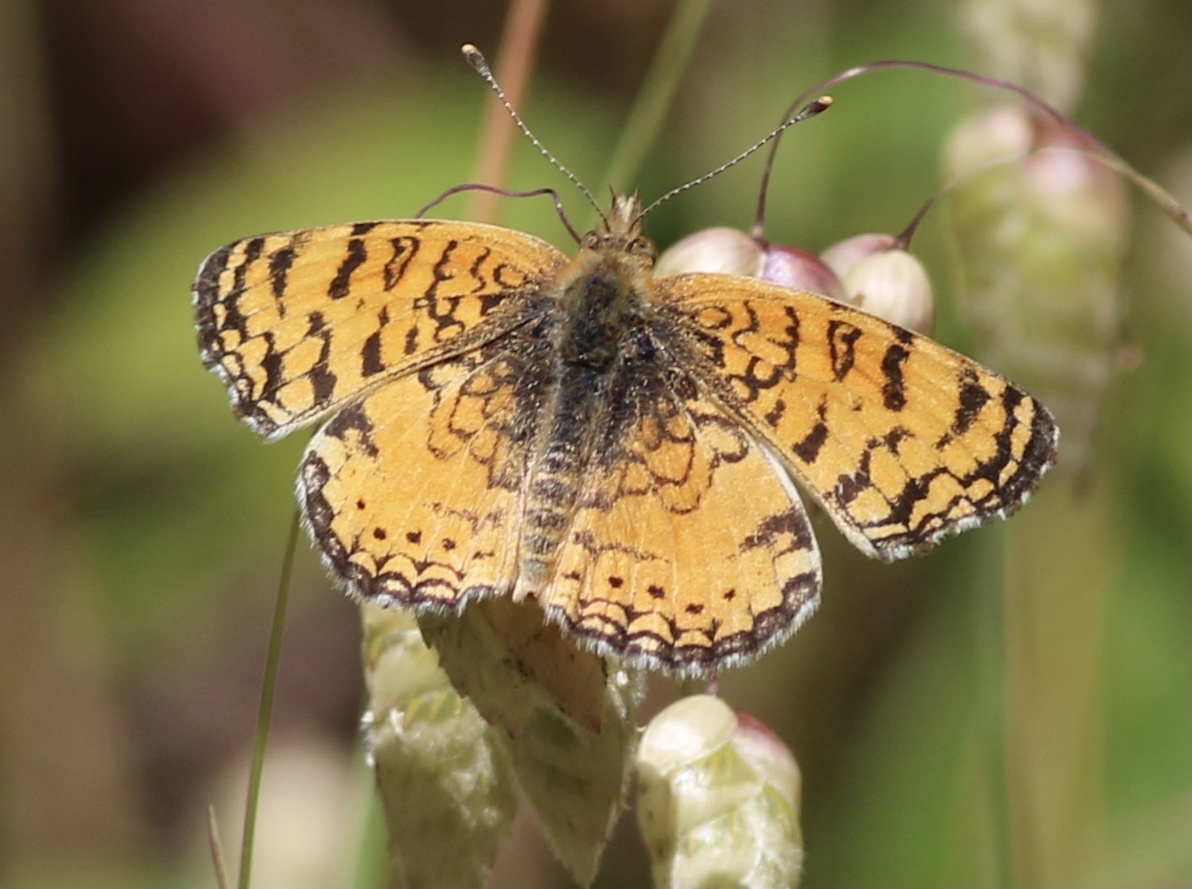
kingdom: Animalia
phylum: Arthropoda
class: Insecta
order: Lepidoptera
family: Nymphalidae
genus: Eresia
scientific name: Eresia aveyrona
